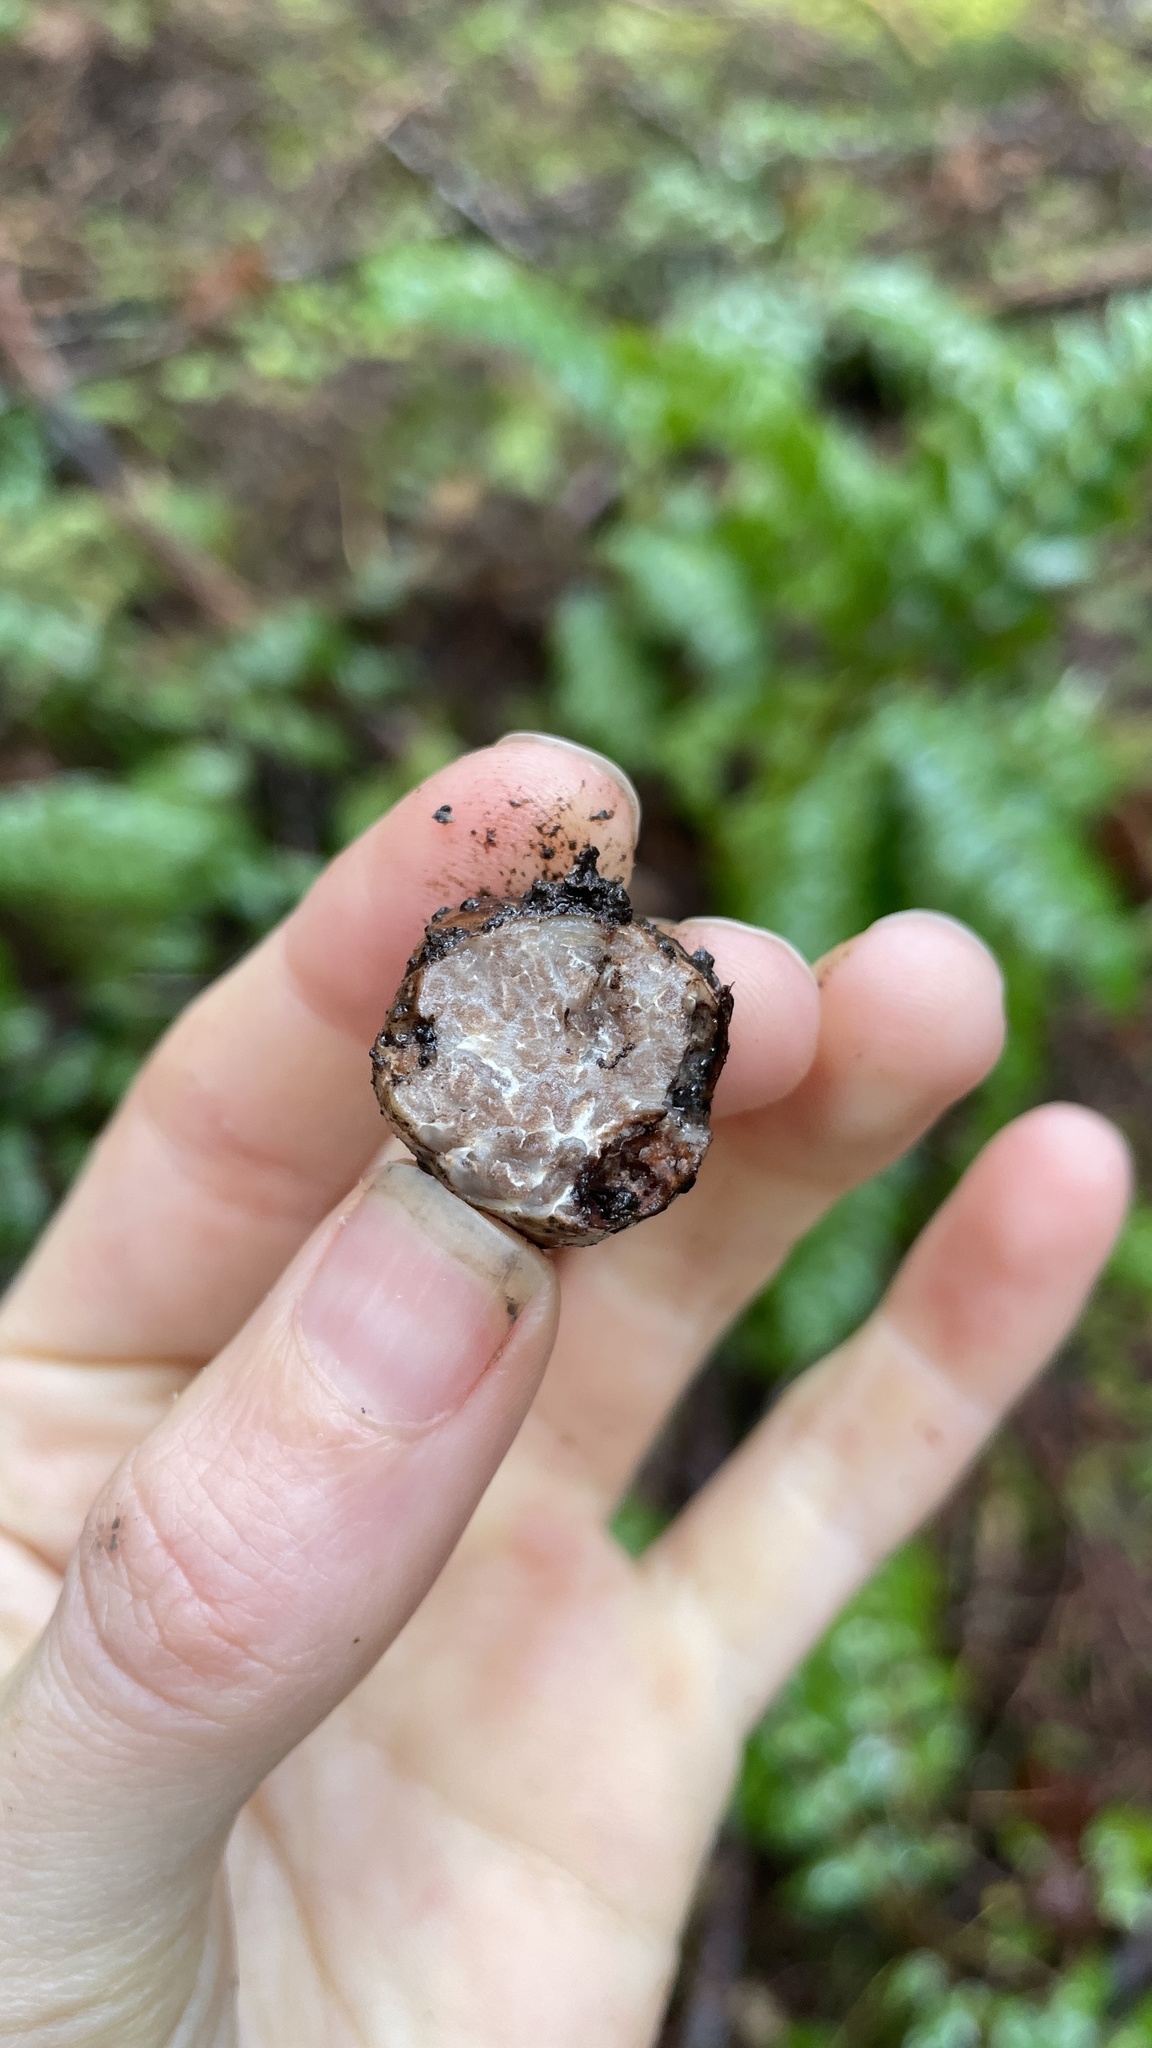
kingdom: Fungi
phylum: Ascomycota
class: Pezizomycetes
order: Pezizales
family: Tuberaceae
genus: Tuber
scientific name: Tuber gibbosum
